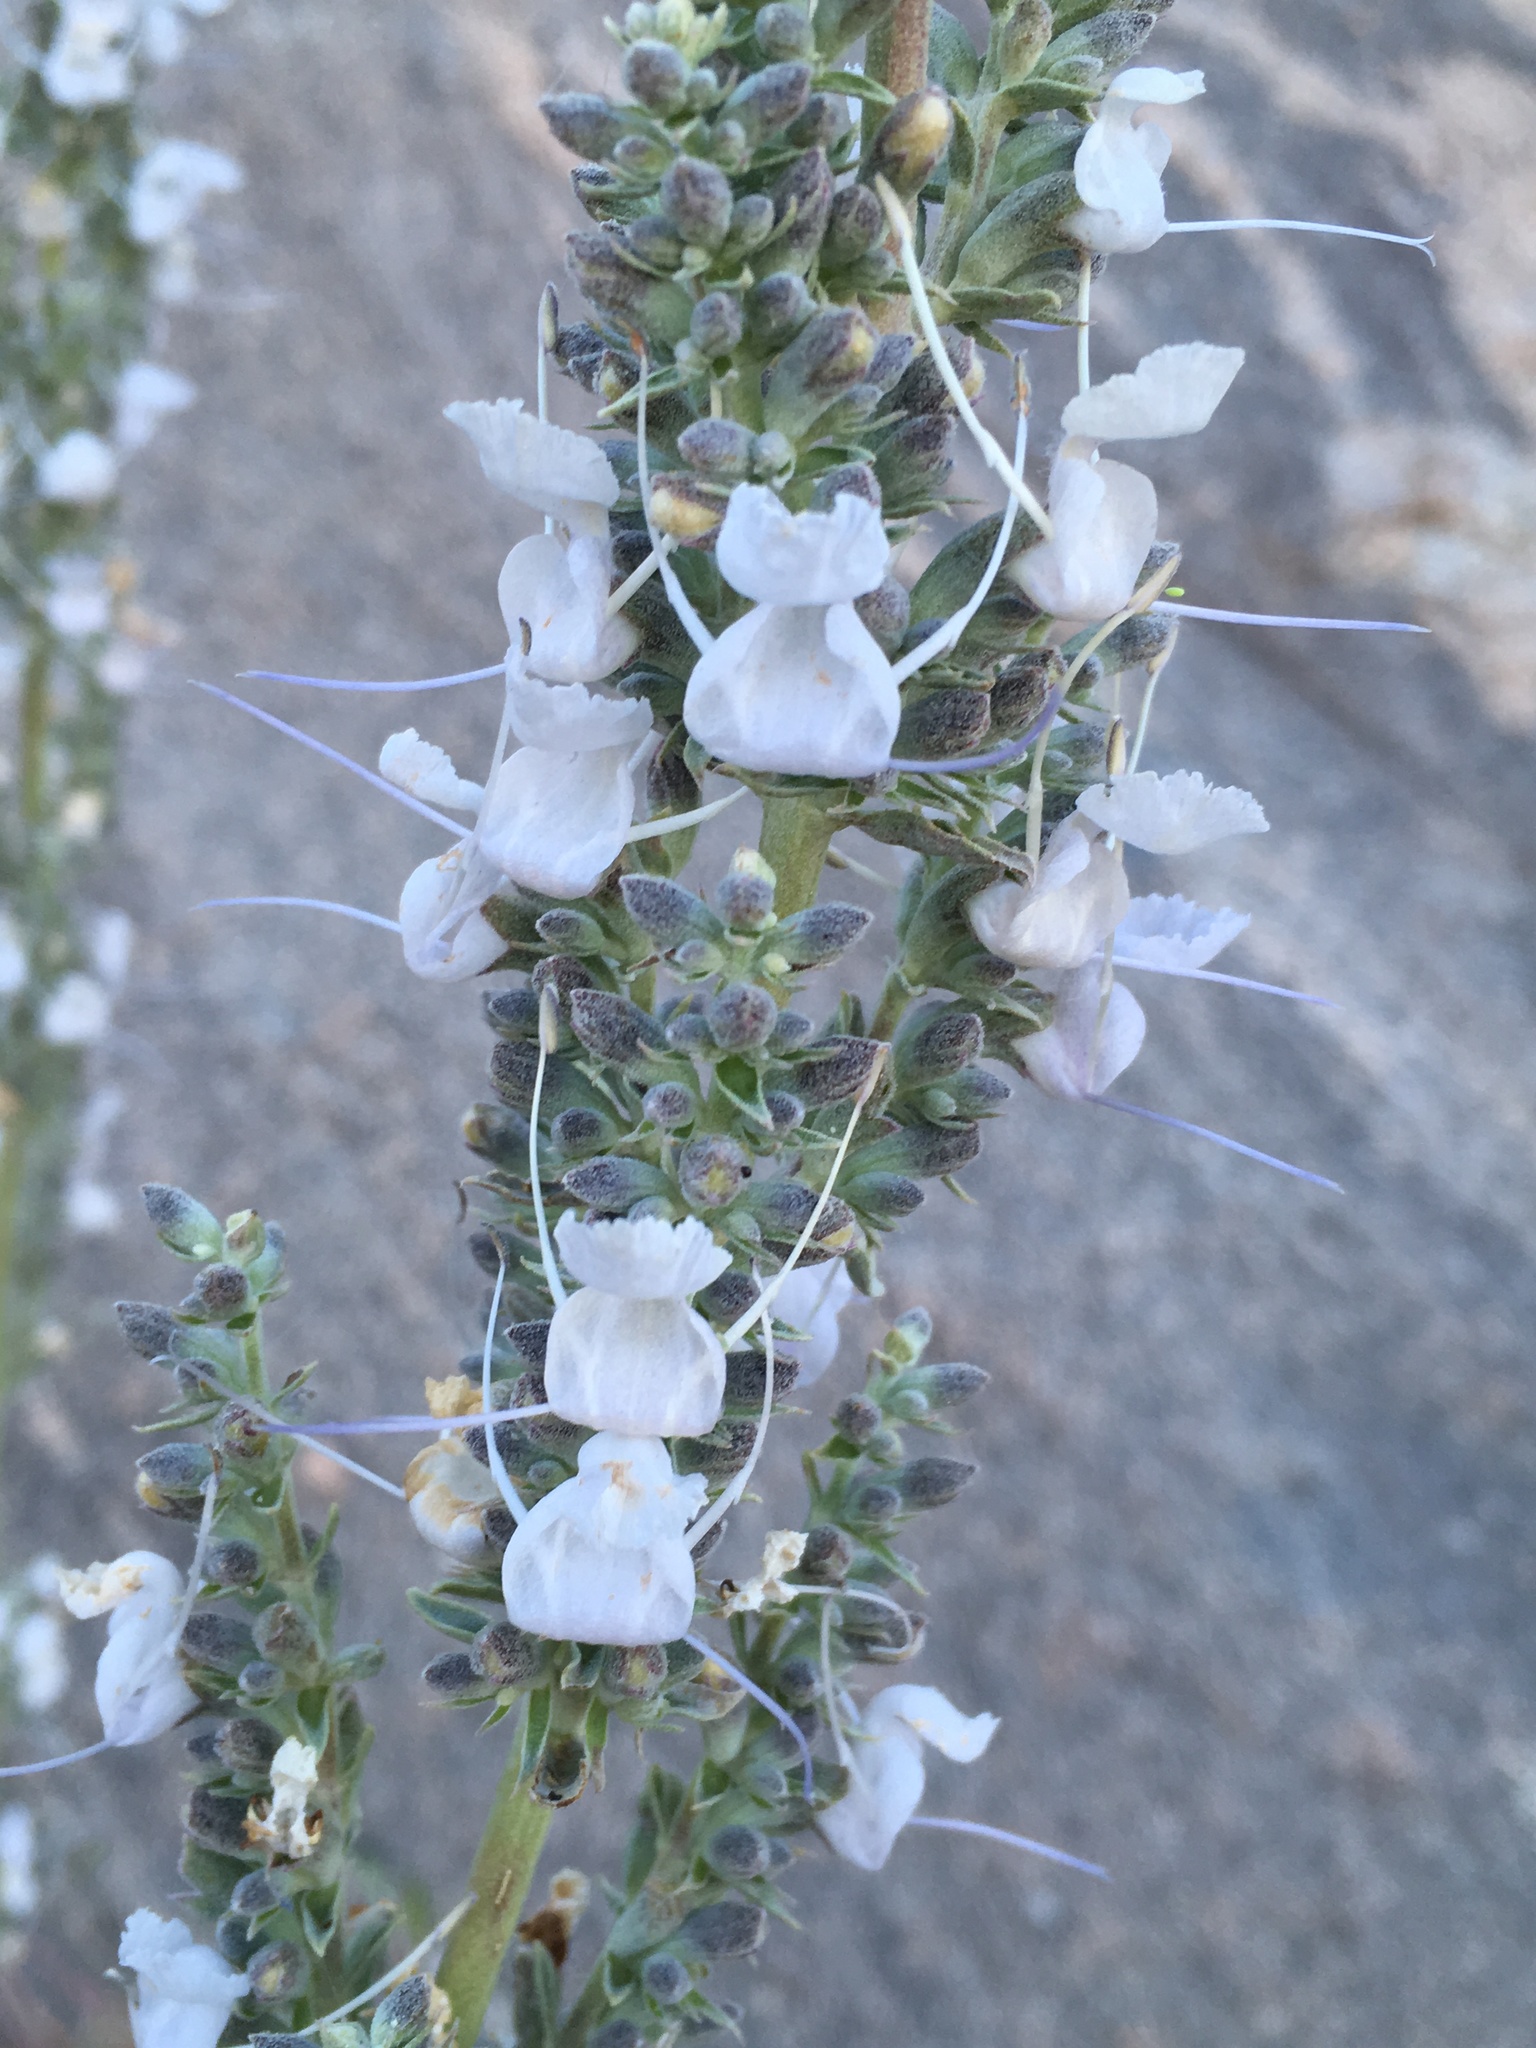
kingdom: Plantae
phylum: Tracheophyta
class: Magnoliopsida
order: Lamiales
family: Lamiaceae
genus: Salvia
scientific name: Salvia apiana
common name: White sage
